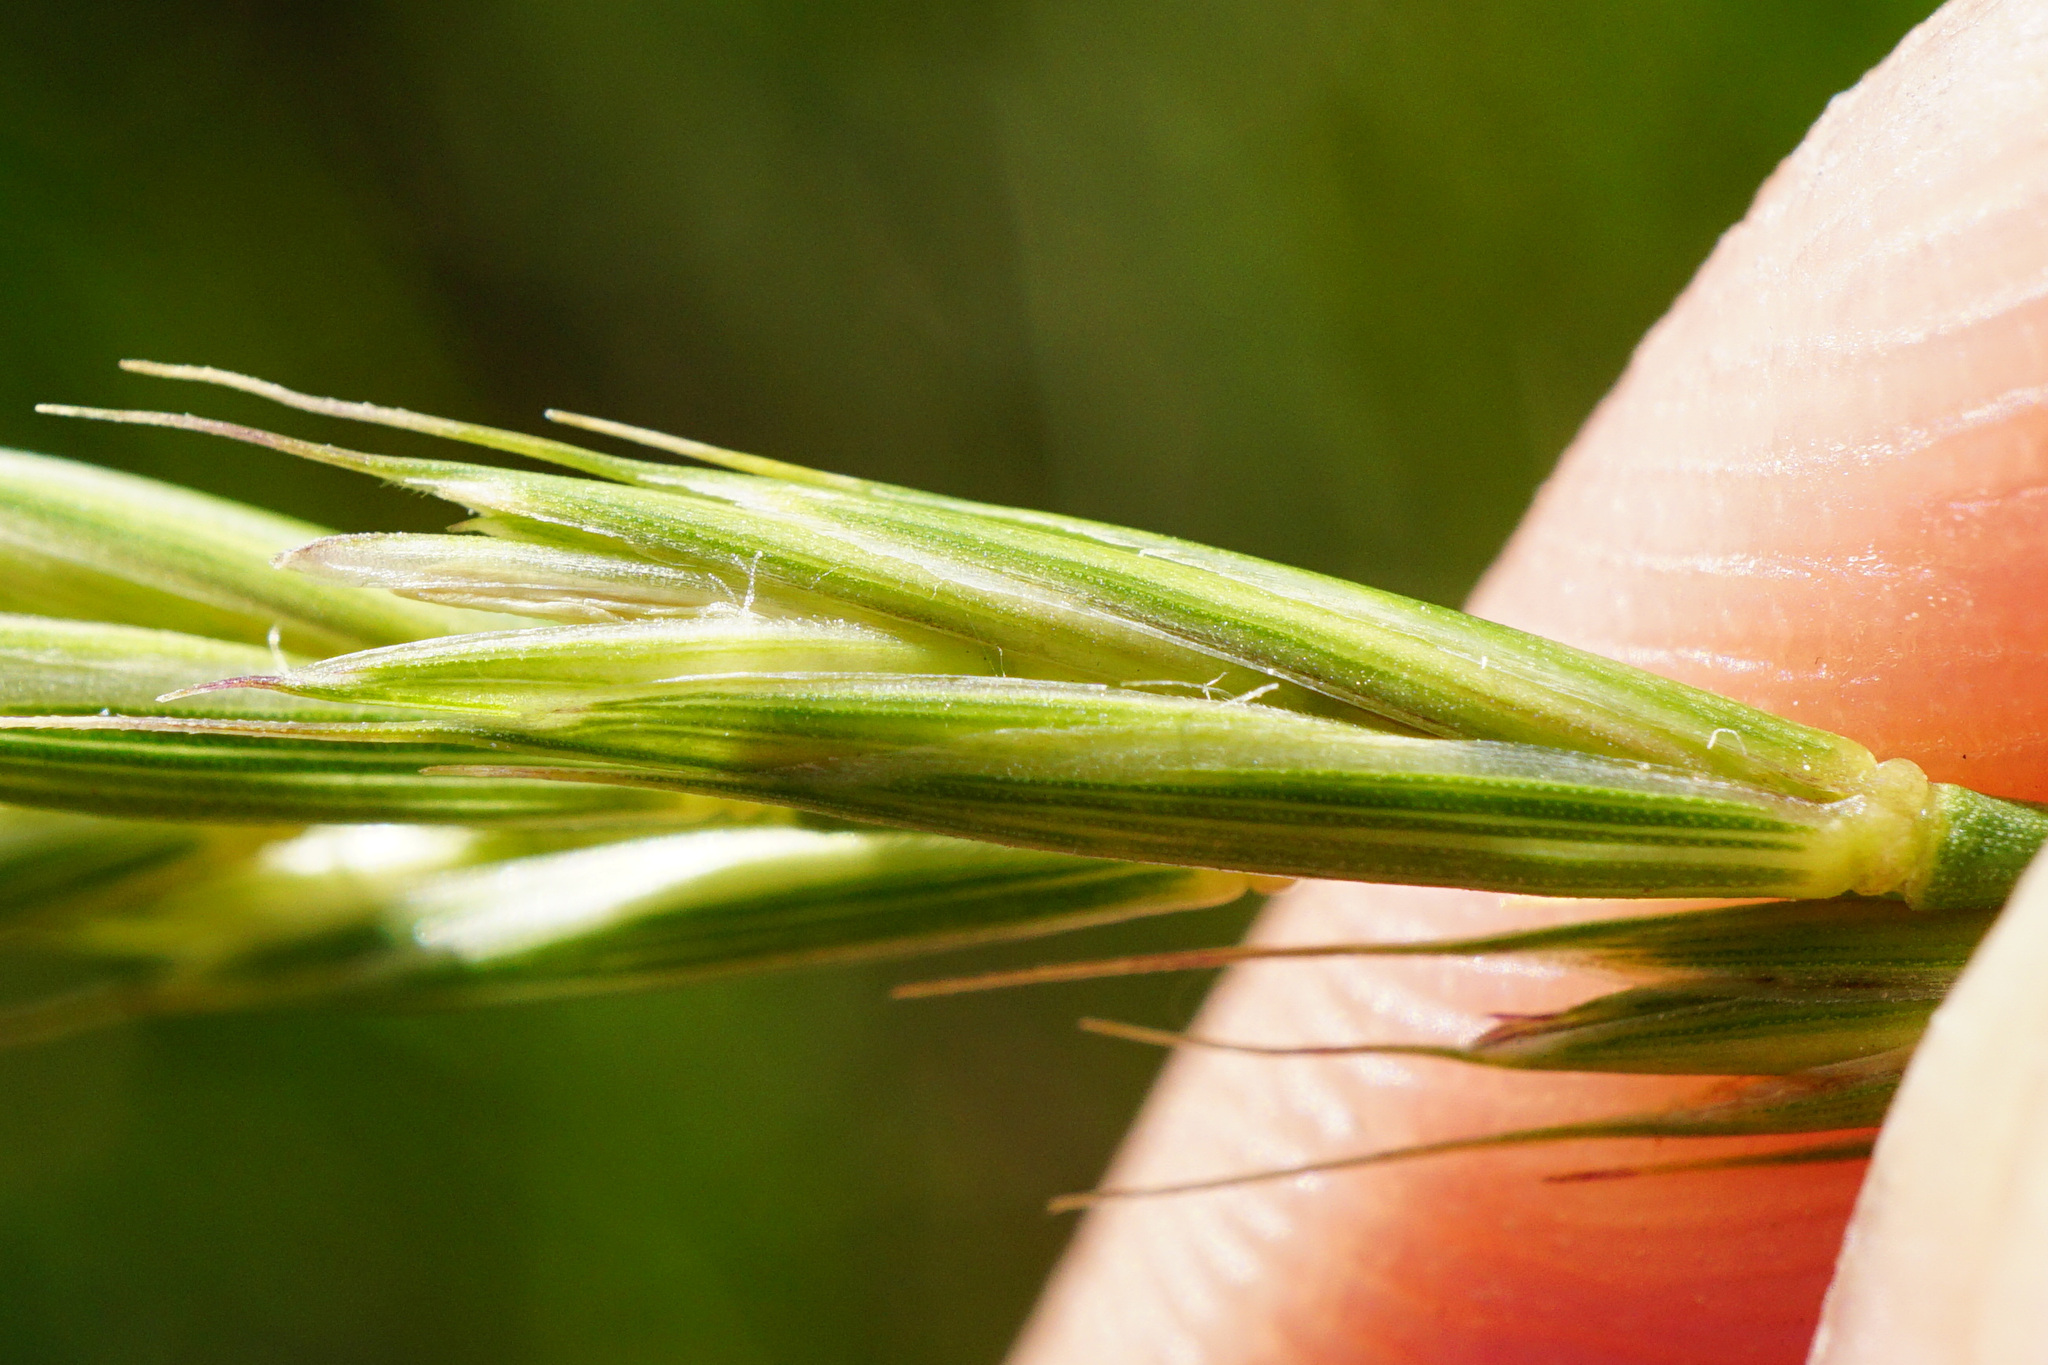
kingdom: Plantae
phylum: Tracheophyta
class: Liliopsida
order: Poales
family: Poaceae
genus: Elymus
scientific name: Elymus repens
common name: Quackgrass
